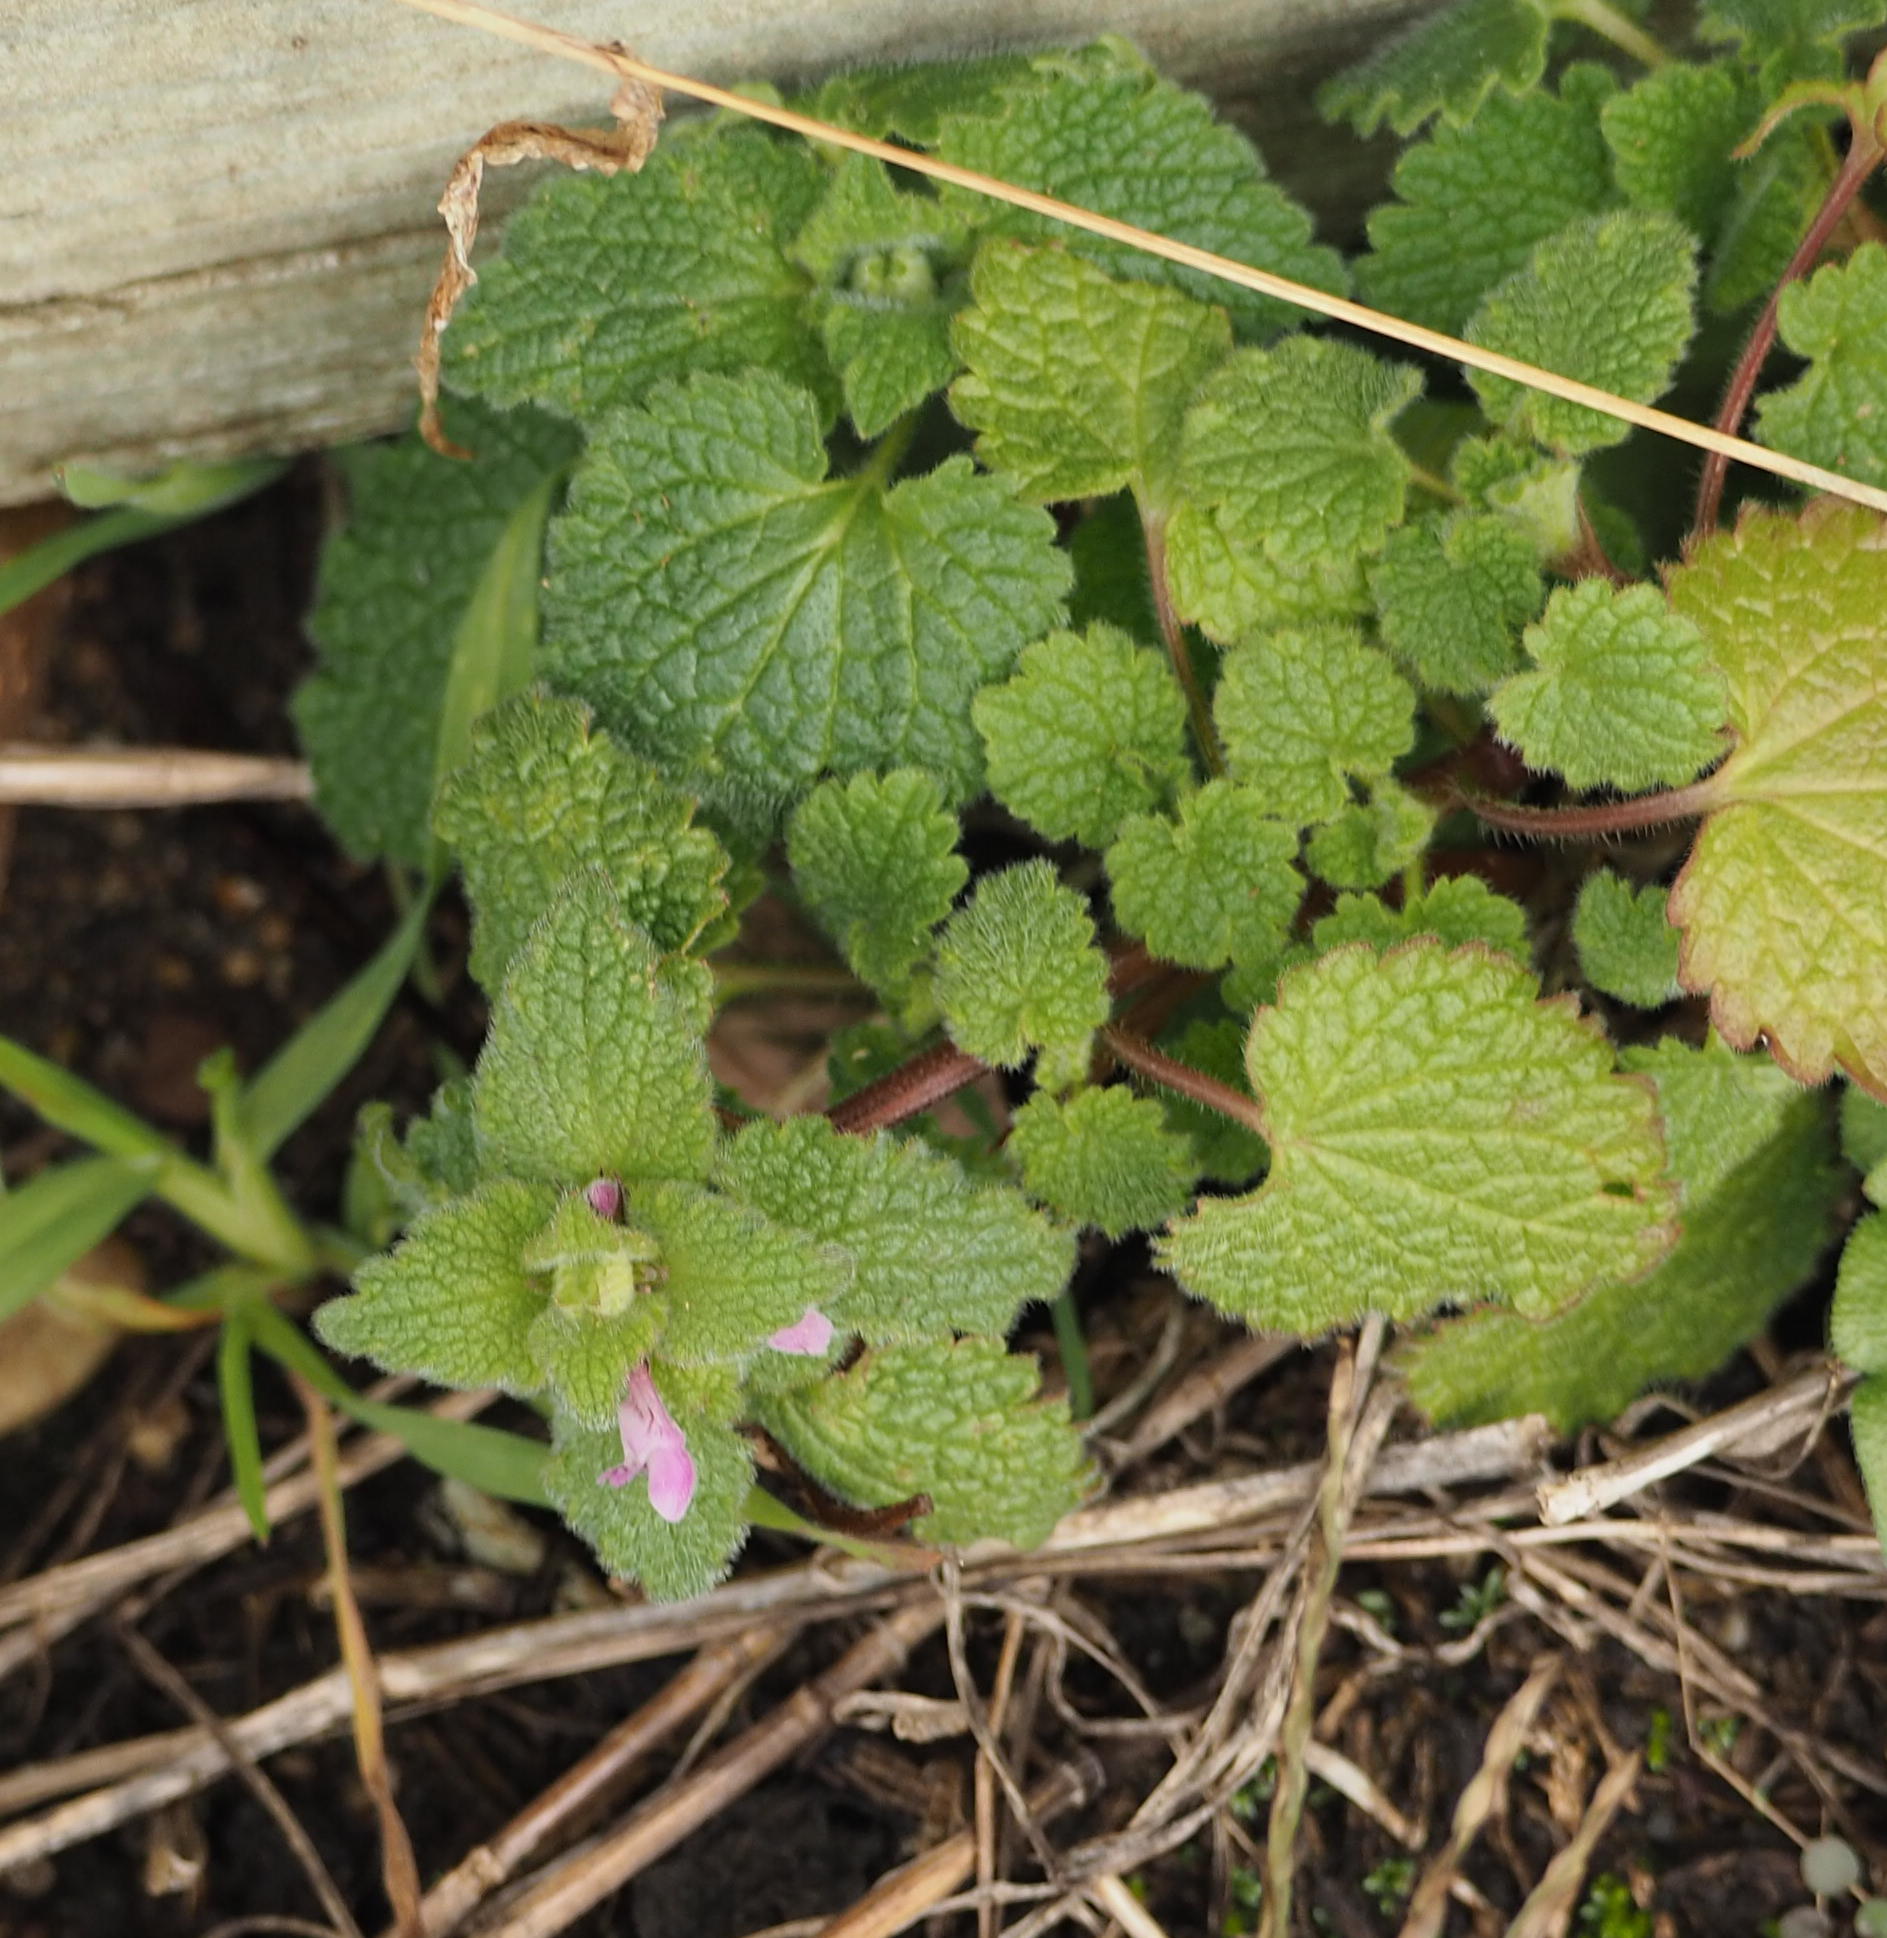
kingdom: Plantae
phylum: Tracheophyta
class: Magnoliopsida
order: Lamiales
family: Lamiaceae
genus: Lamium
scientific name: Lamium purpureum
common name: Red dead-nettle
